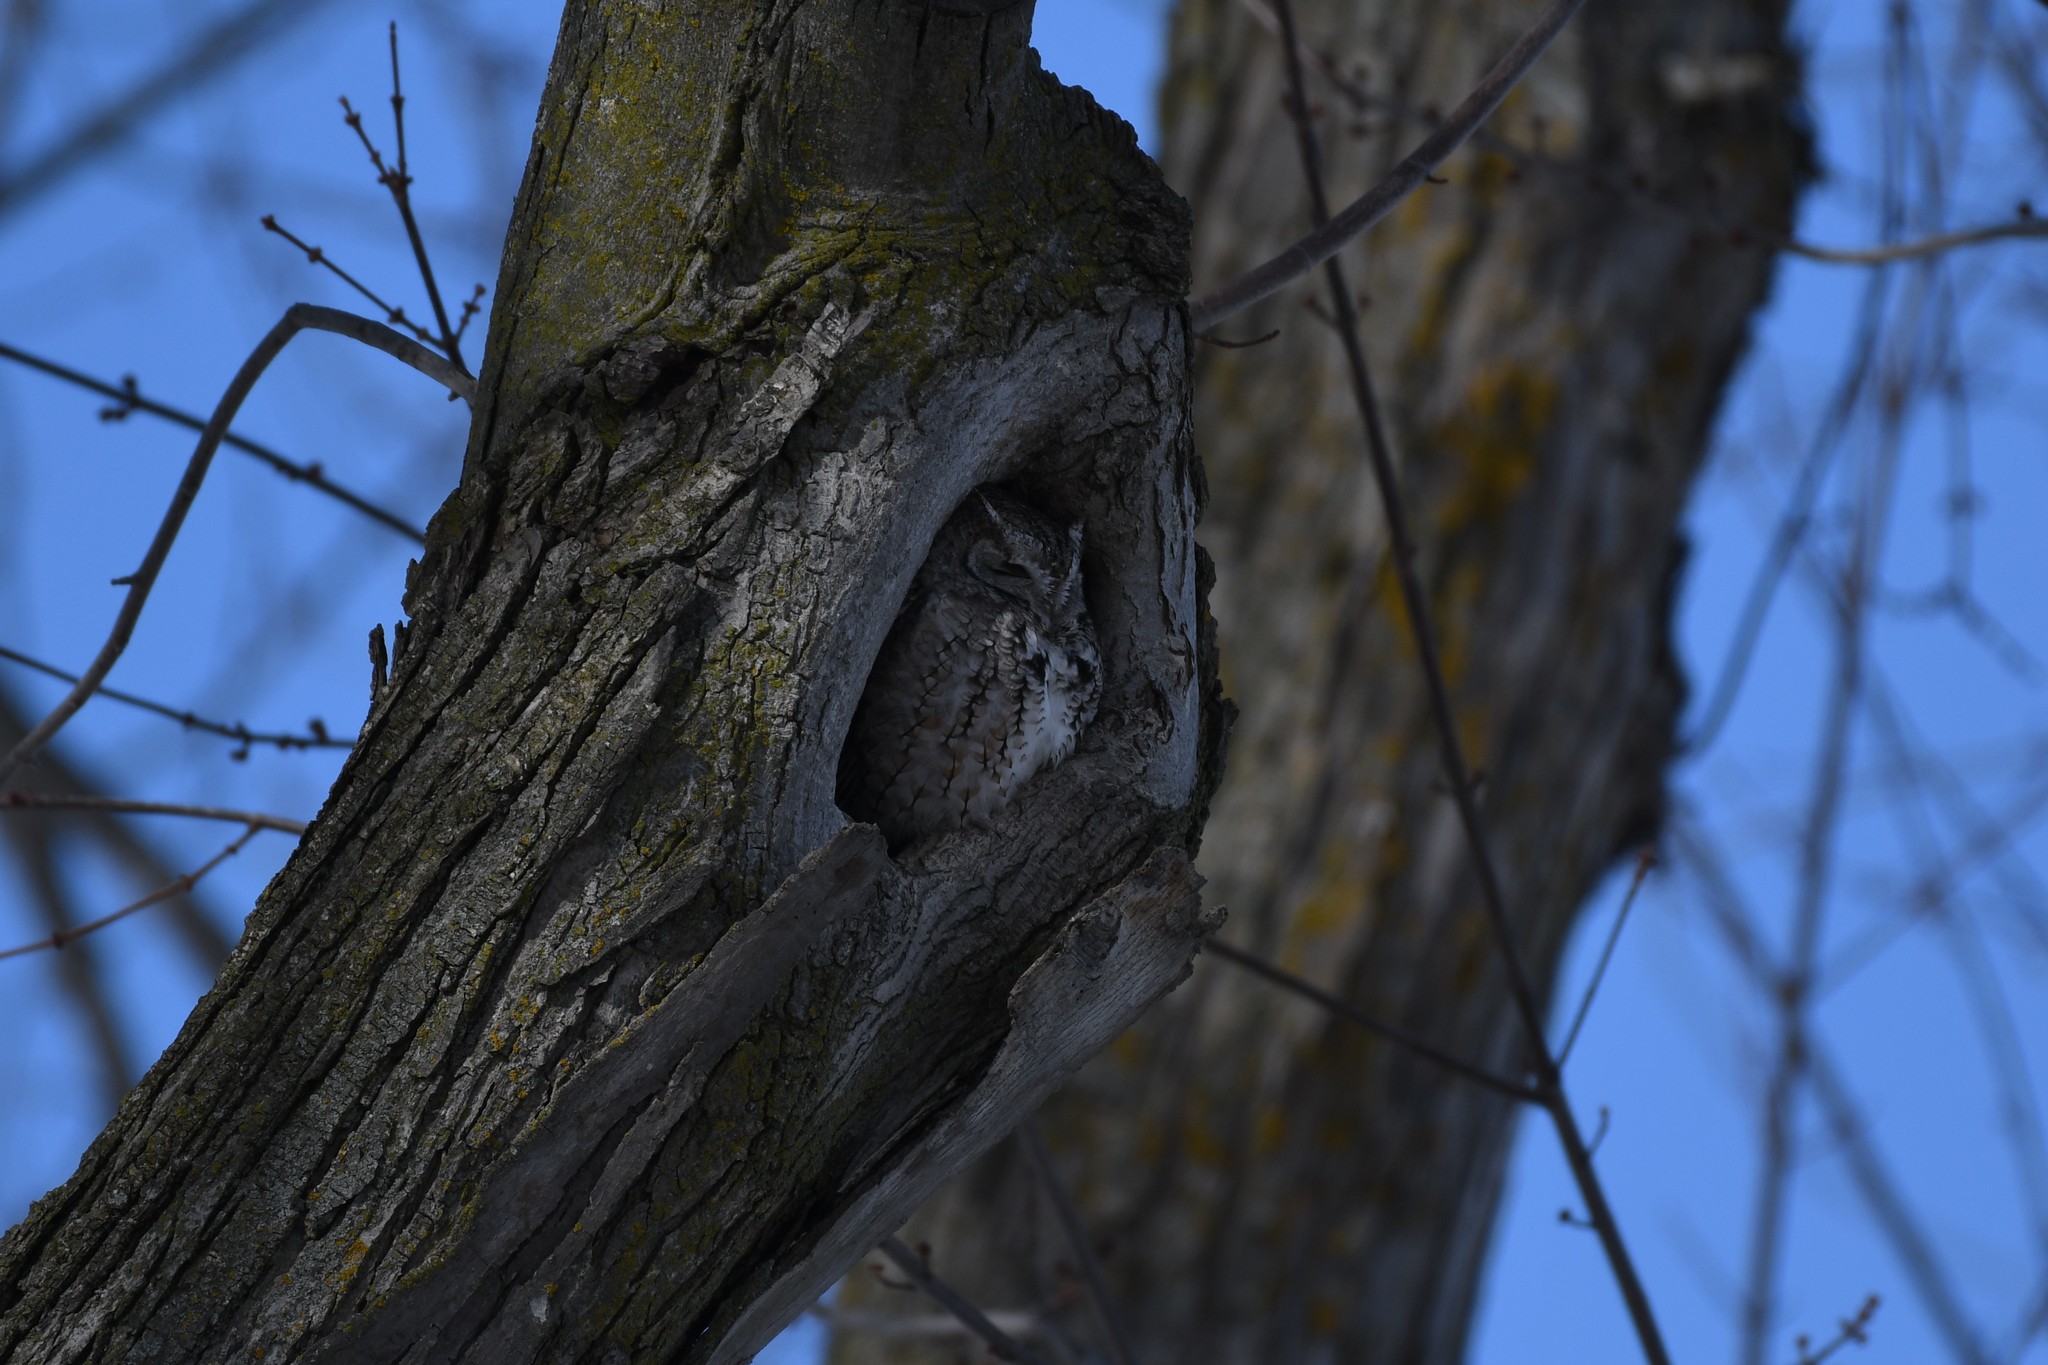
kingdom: Animalia
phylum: Chordata
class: Aves
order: Strigiformes
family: Strigidae
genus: Megascops
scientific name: Megascops asio
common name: Eastern screech-owl
